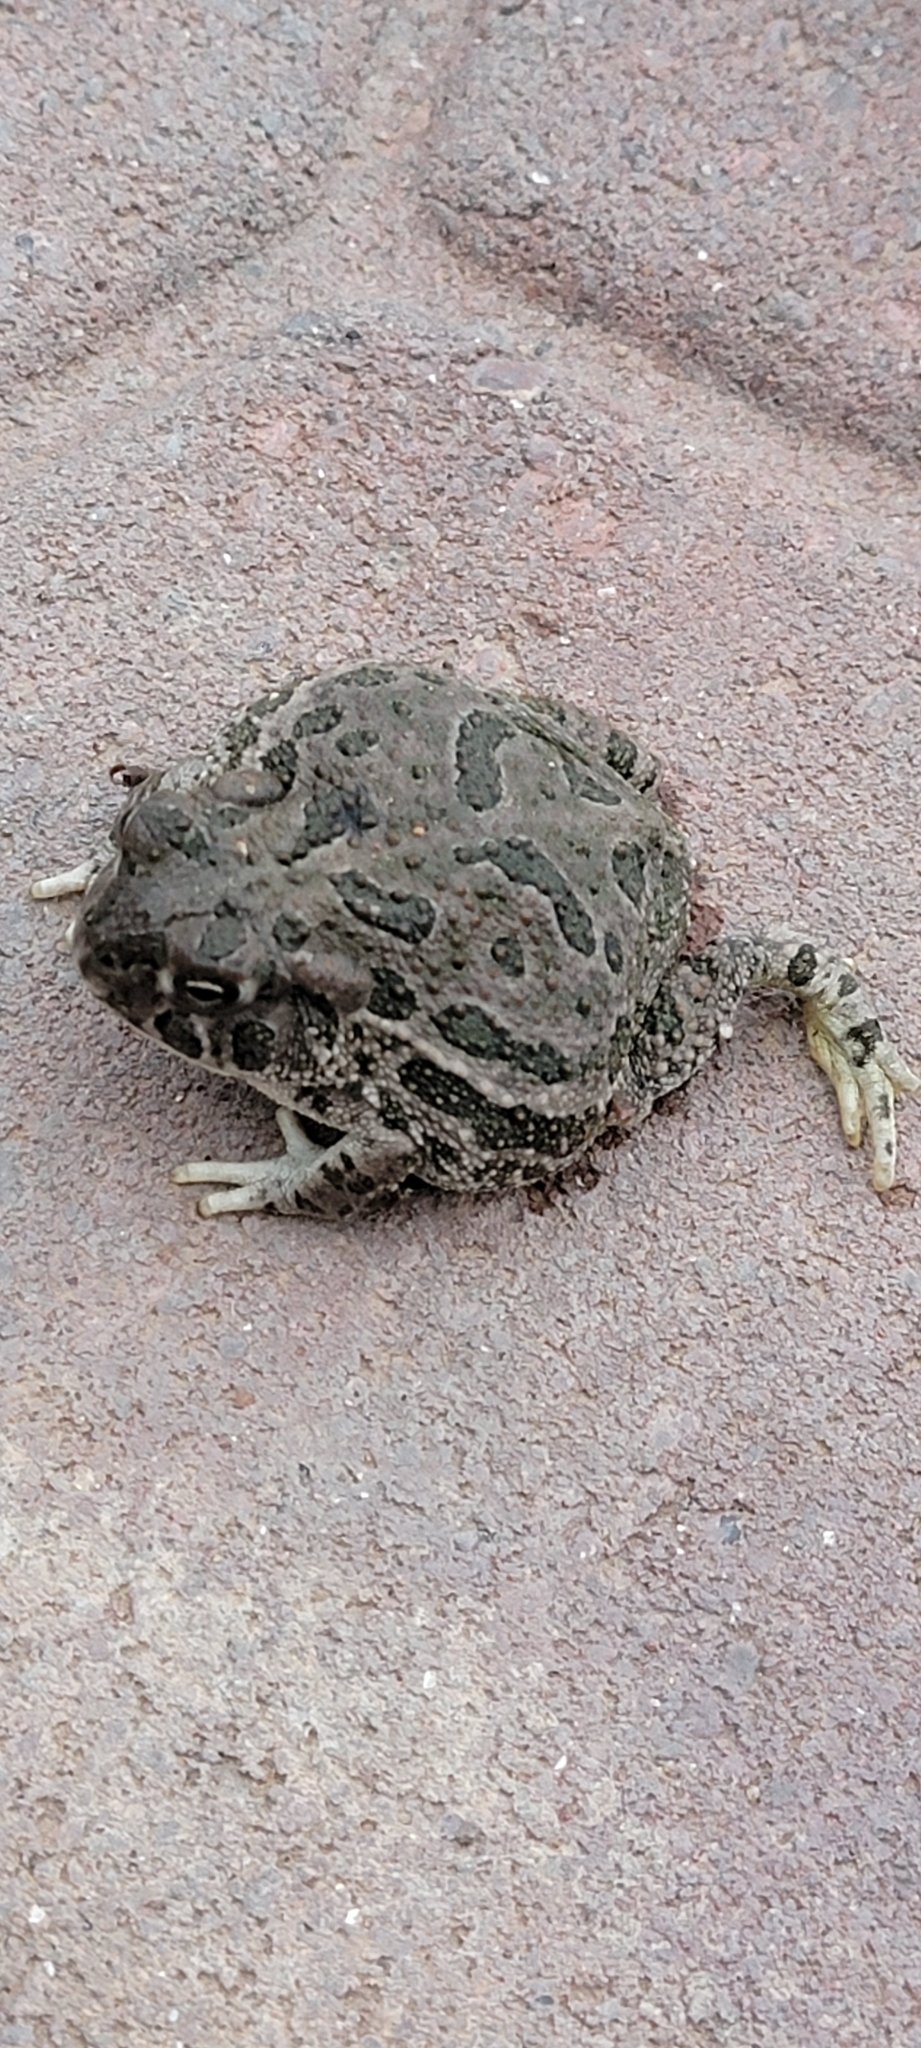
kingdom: Animalia
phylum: Chordata
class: Amphibia
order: Anura
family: Bufonidae
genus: Anaxyrus
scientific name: Anaxyrus cognatus
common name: Great plains toad
